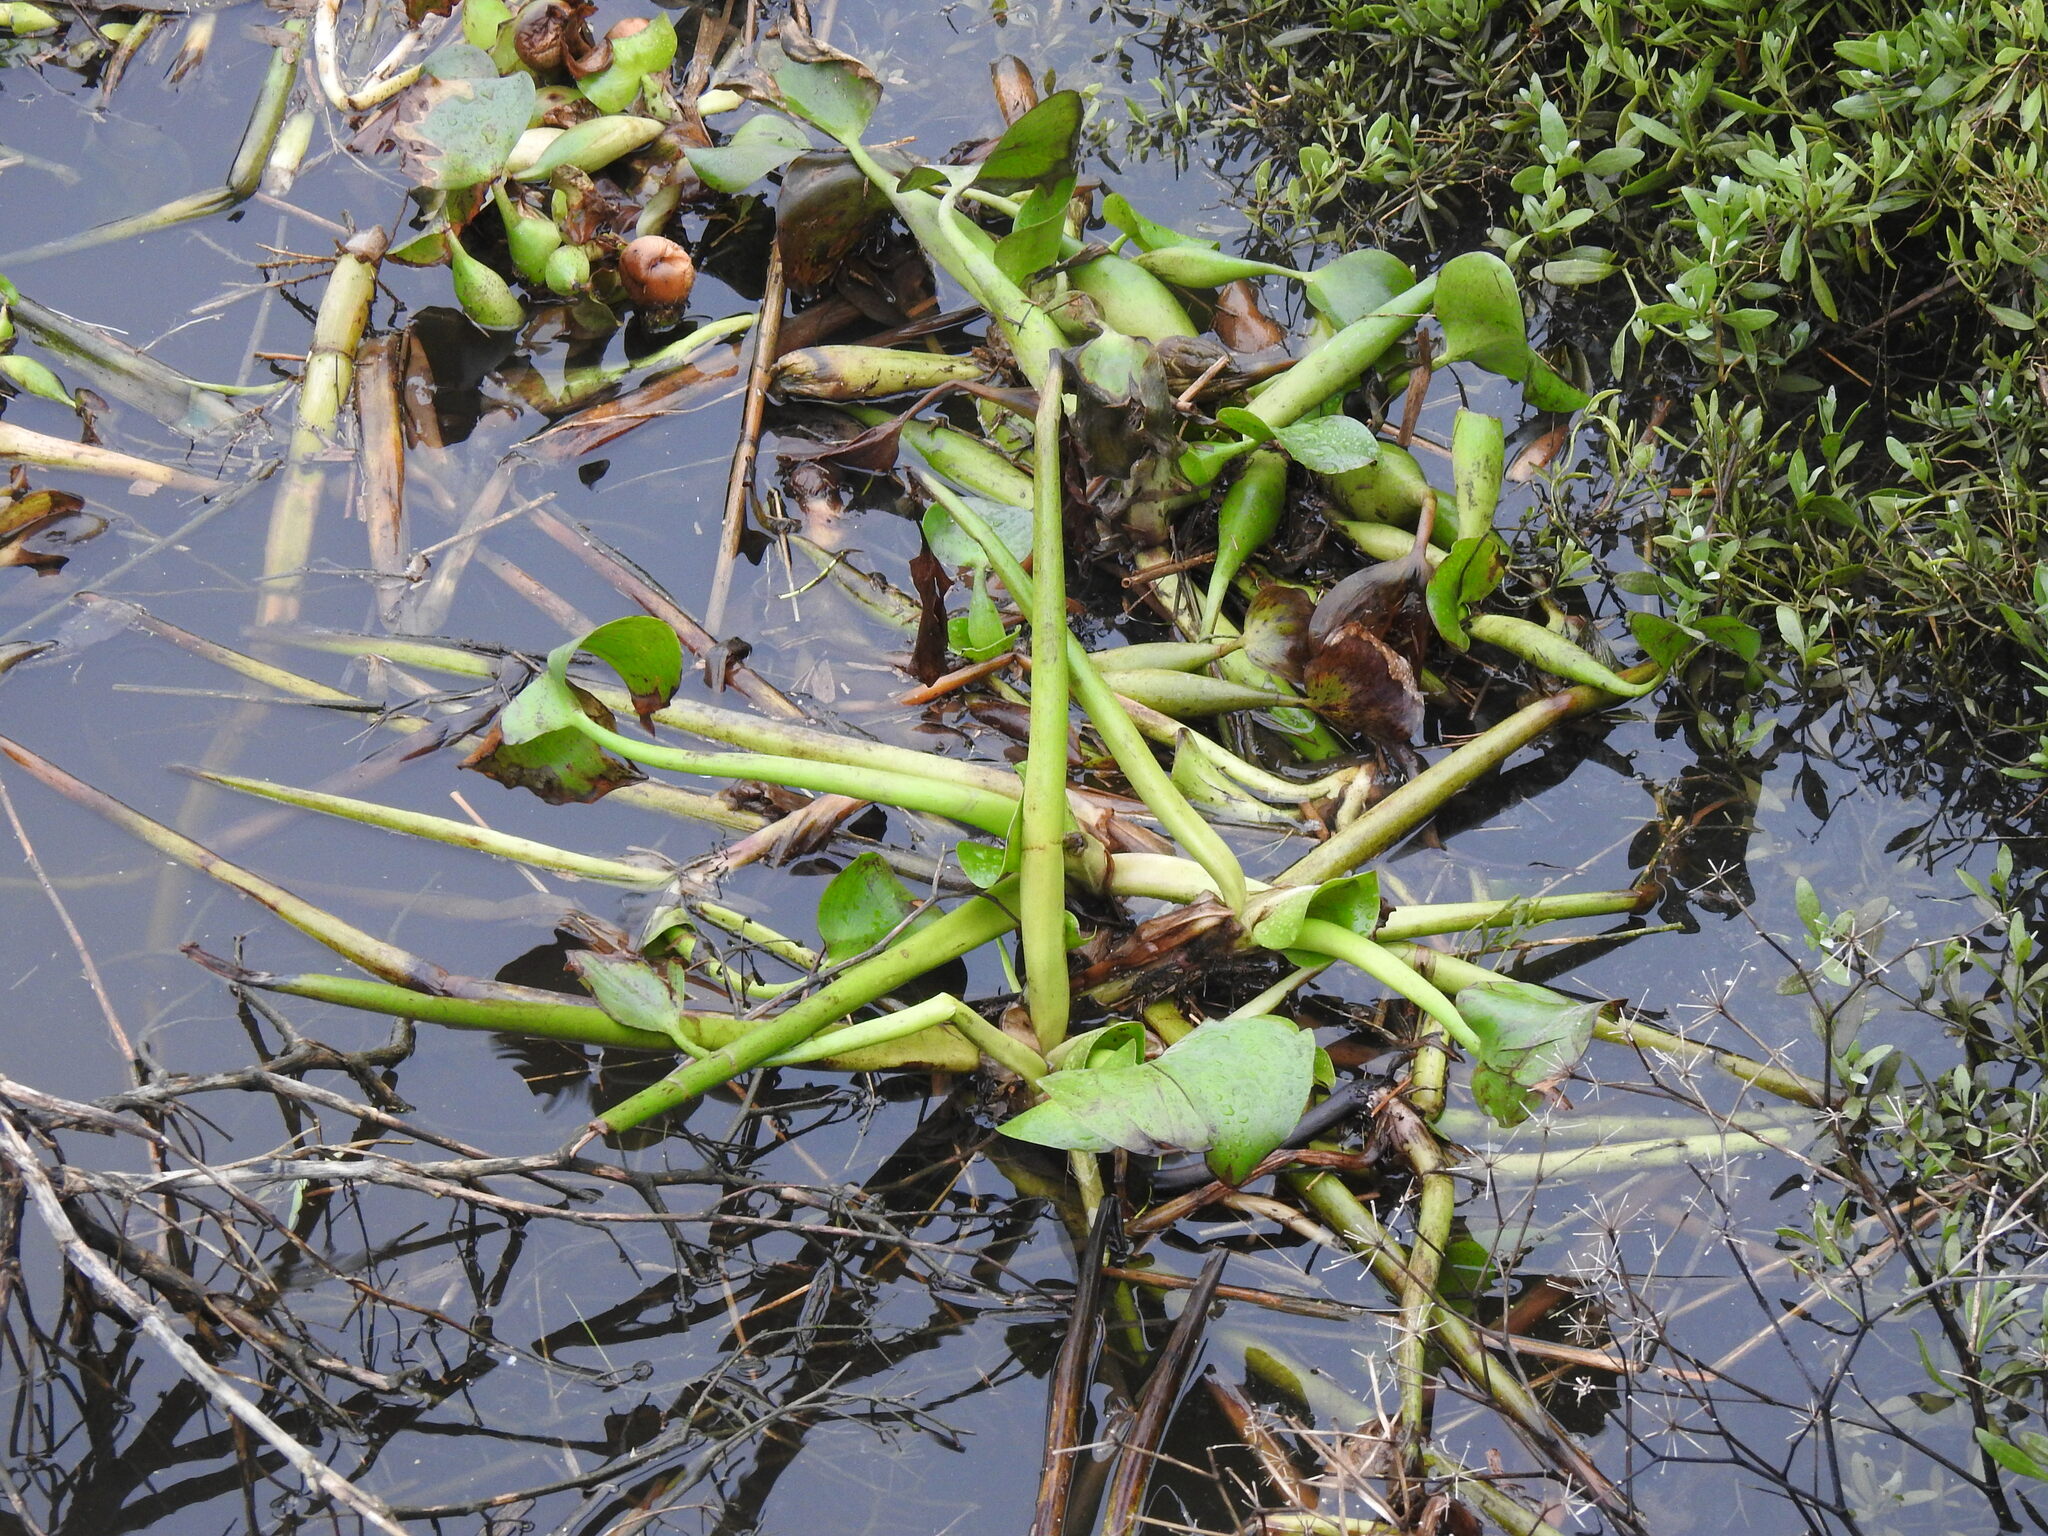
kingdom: Plantae
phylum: Tracheophyta
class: Liliopsida
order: Commelinales
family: Pontederiaceae
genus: Pontederia
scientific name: Pontederia crassipes
